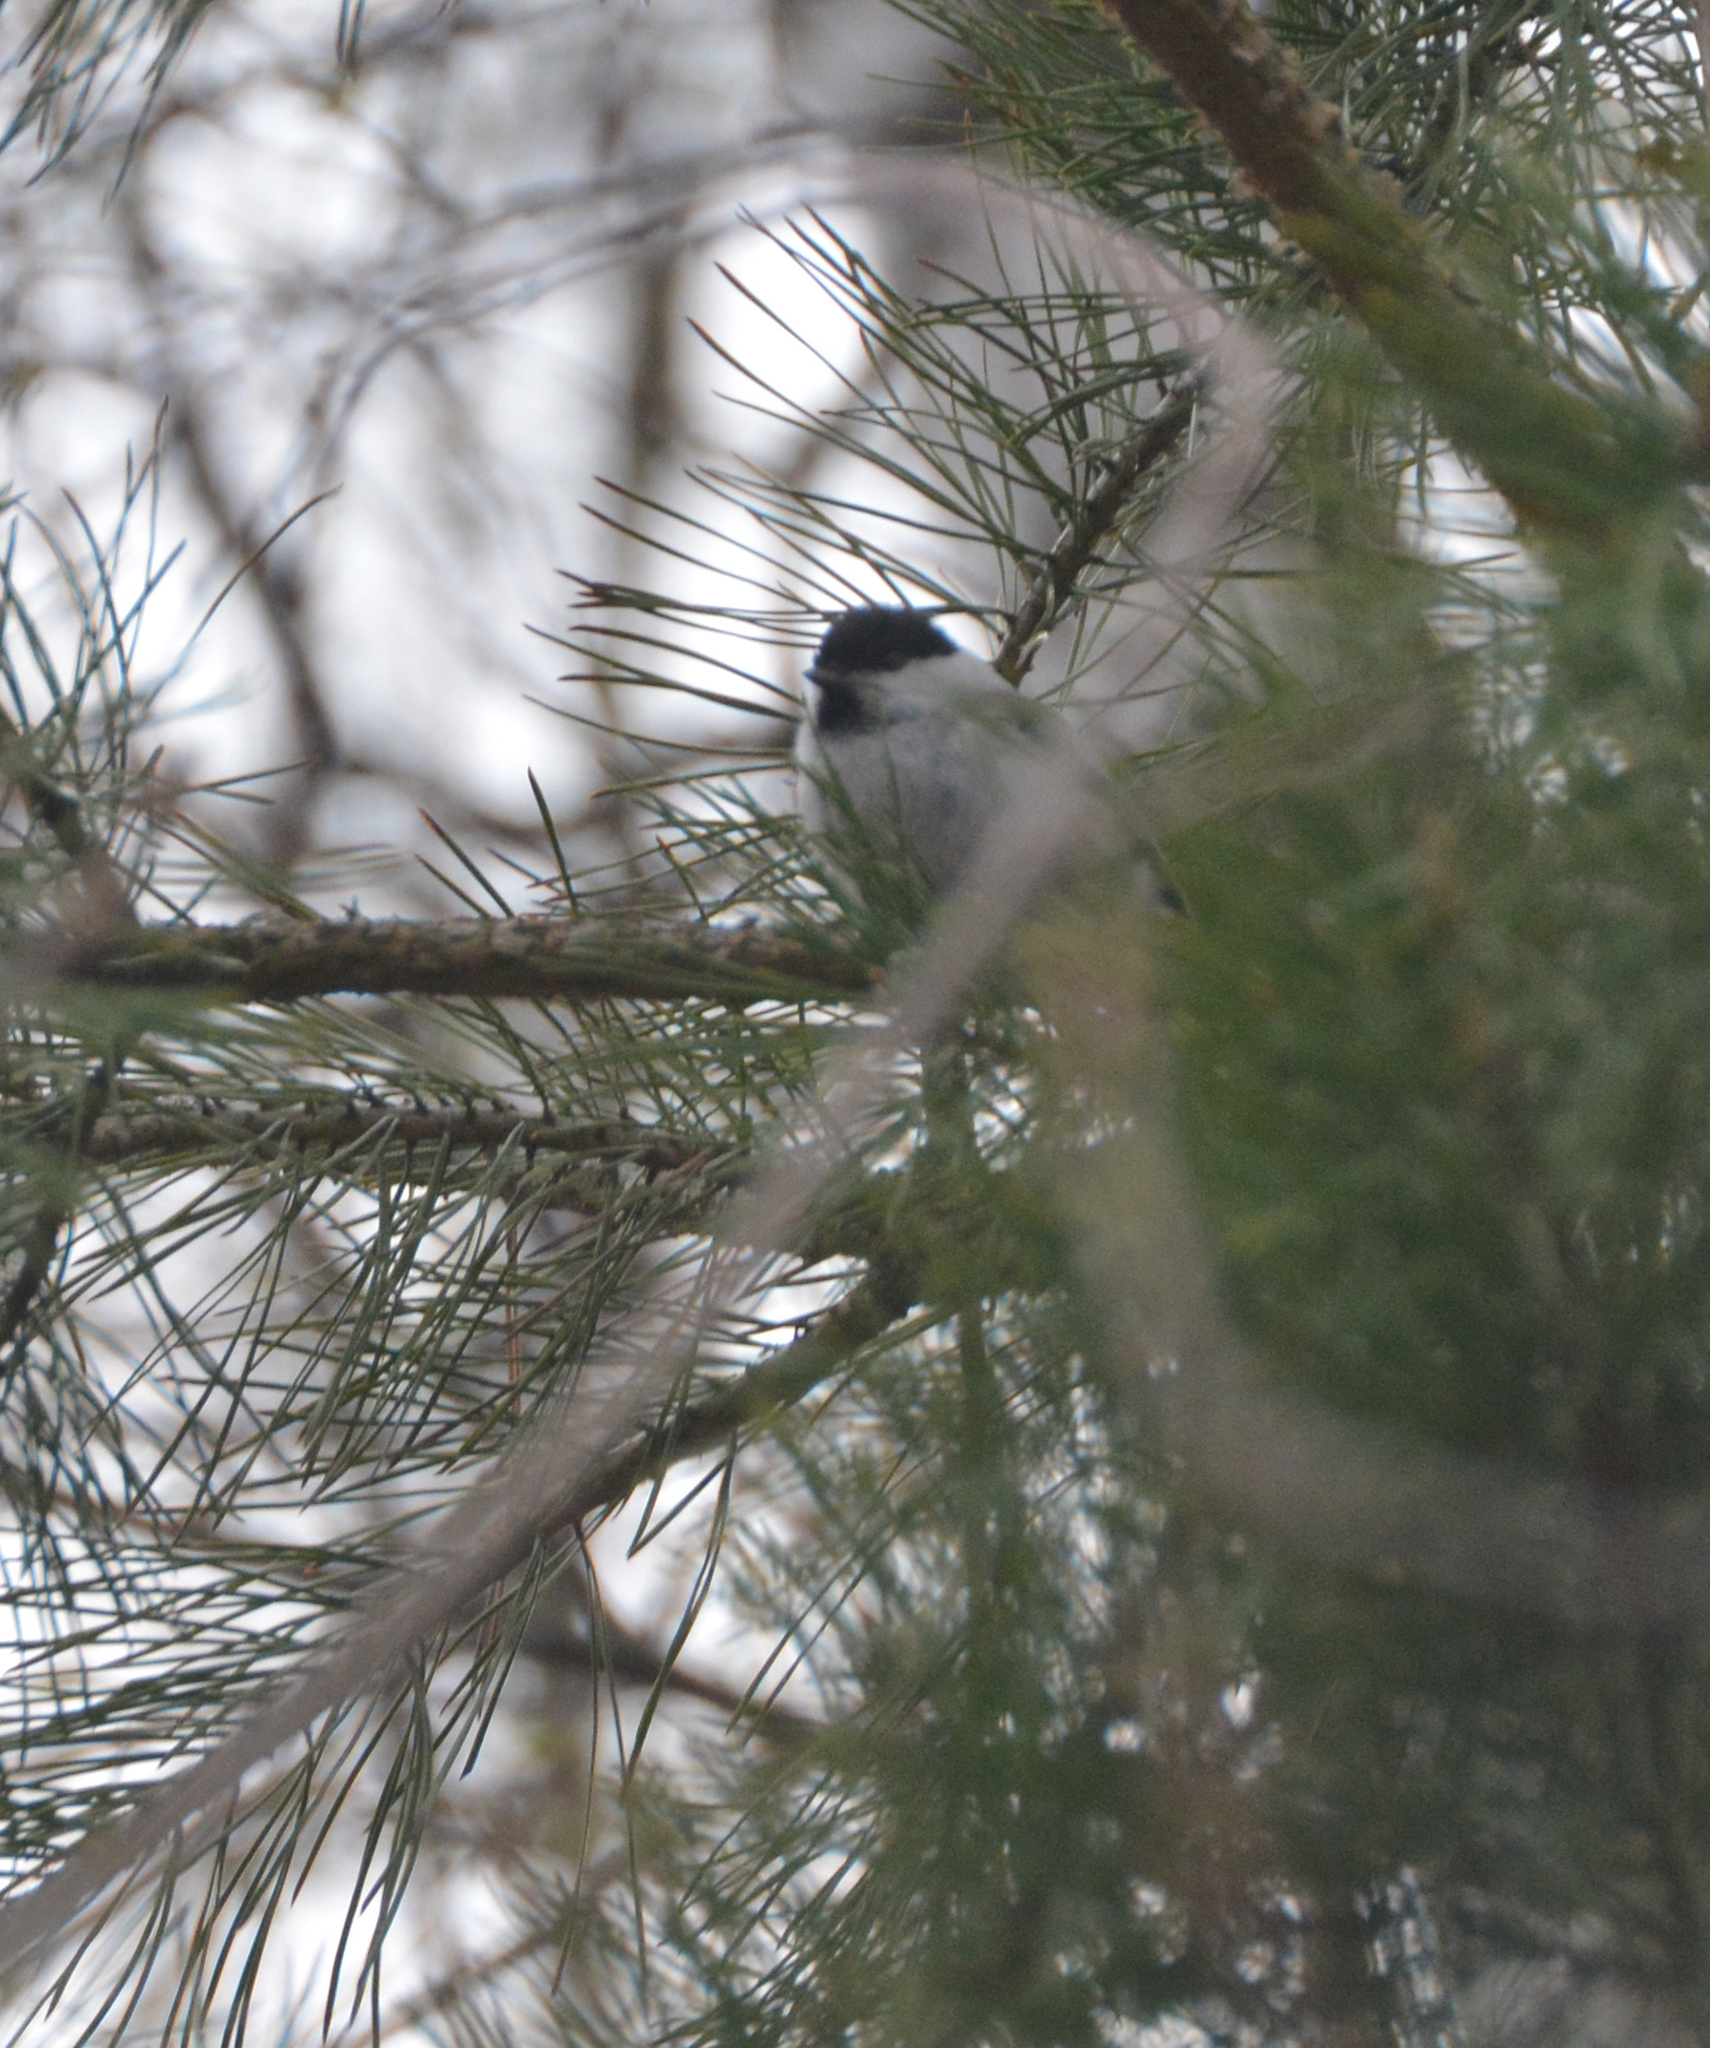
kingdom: Animalia
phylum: Chordata
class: Aves
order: Passeriformes
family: Paridae
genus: Poecile
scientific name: Poecile montanus
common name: Willow tit
